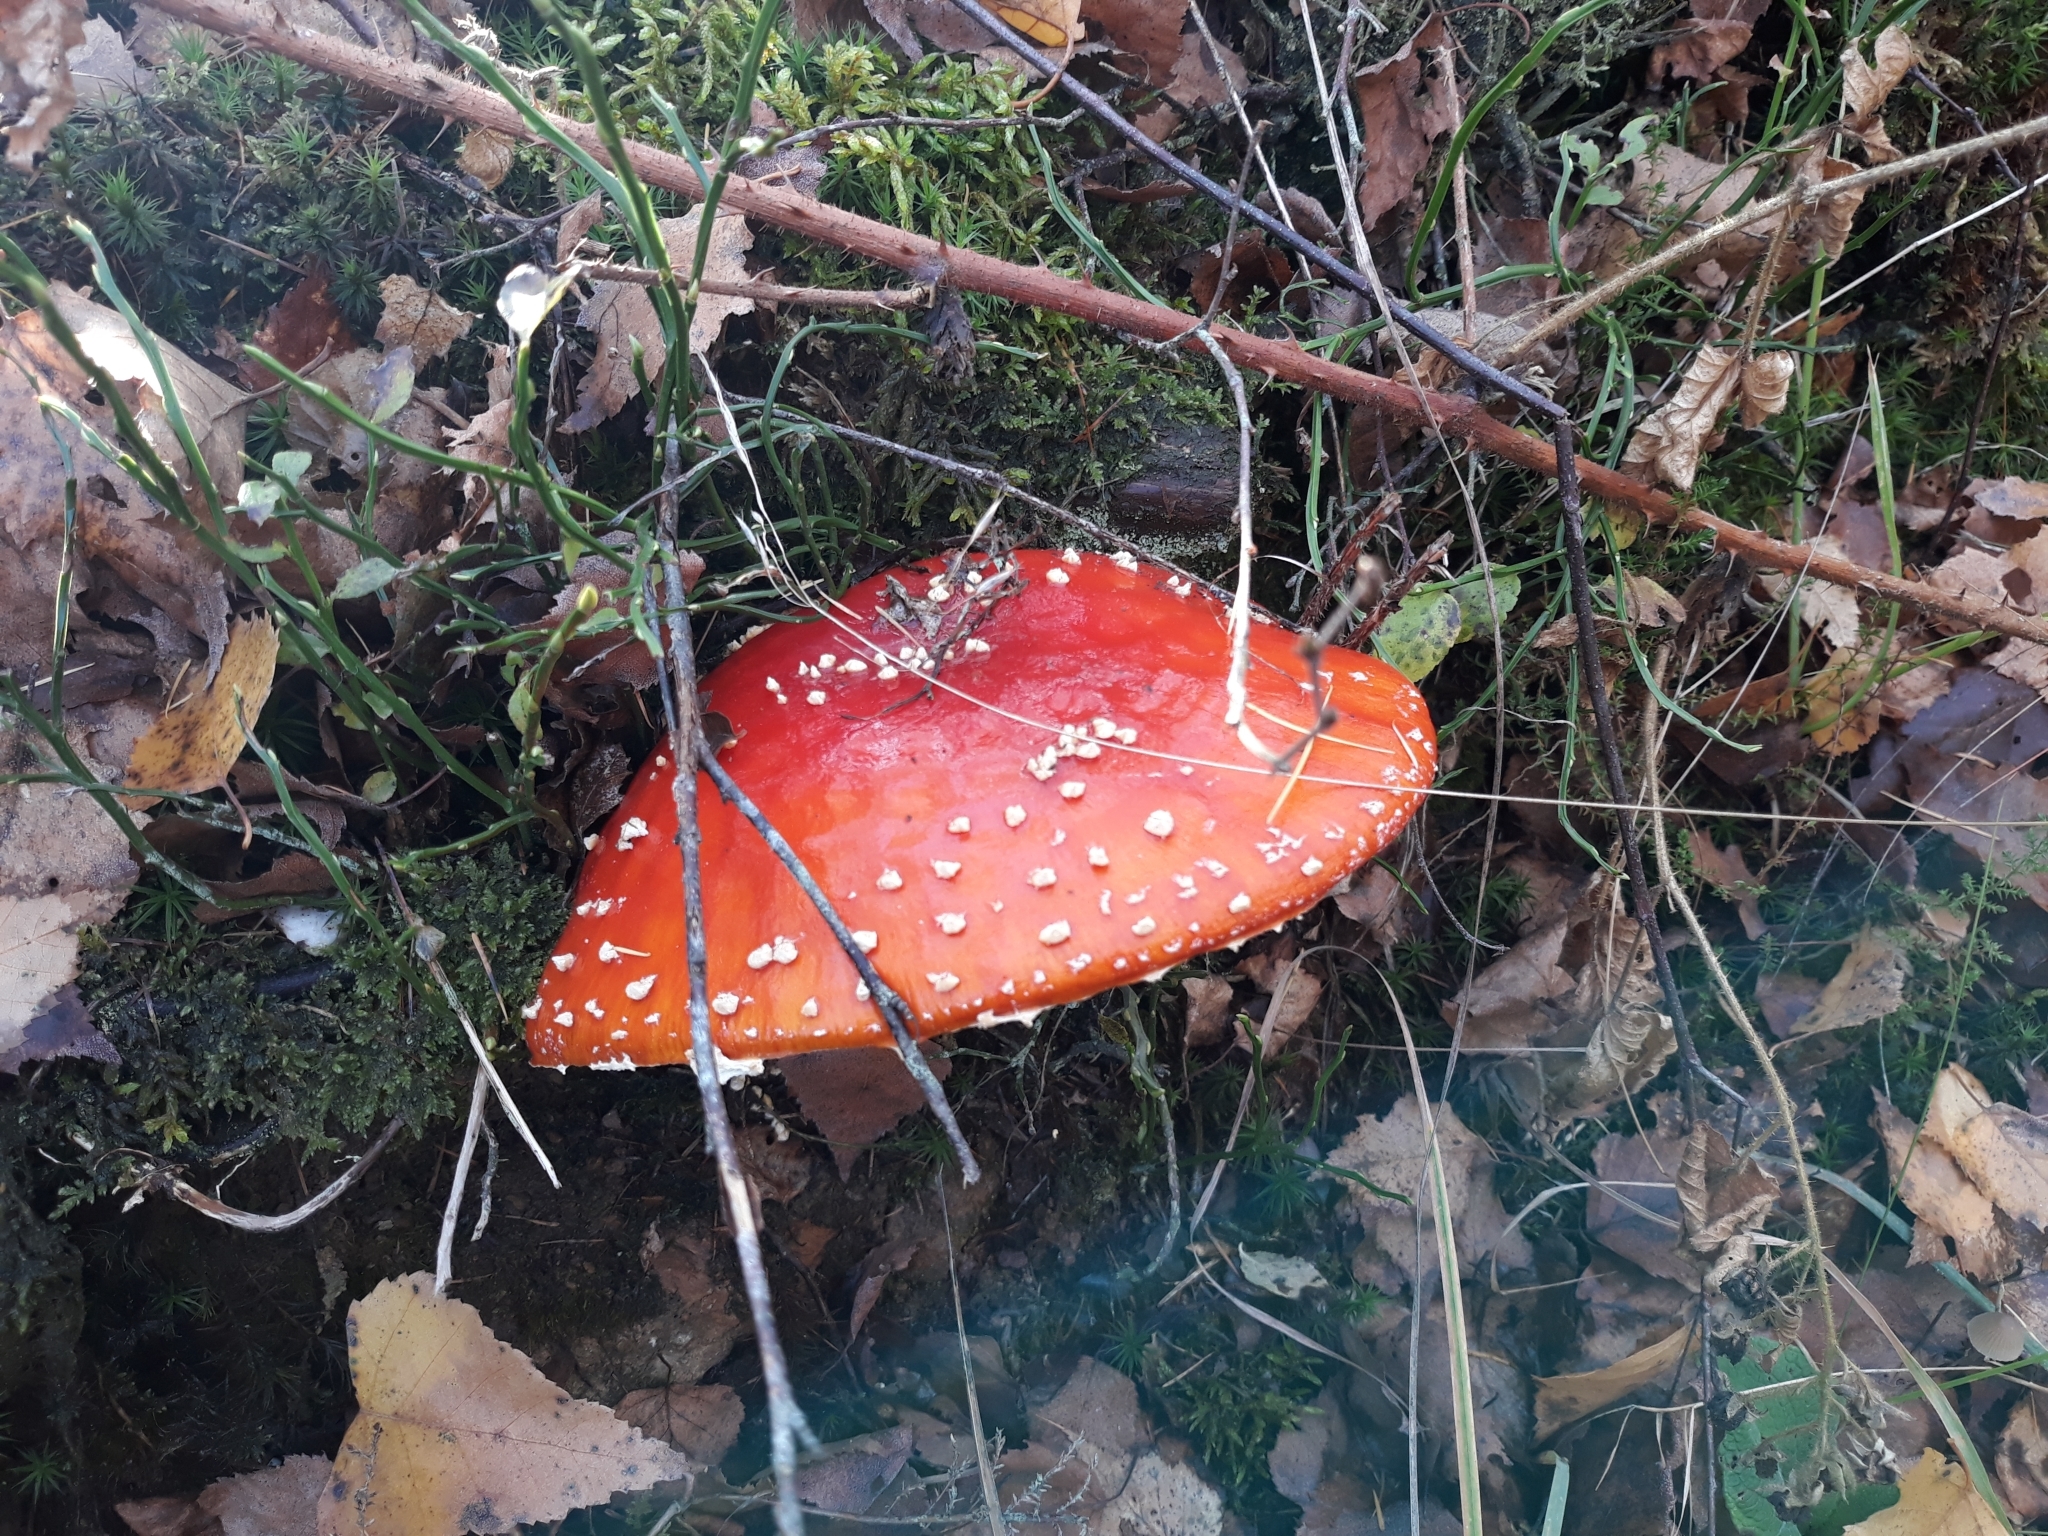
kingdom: Fungi
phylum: Basidiomycota
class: Agaricomycetes
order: Agaricales
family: Amanitaceae
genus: Amanita
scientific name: Amanita muscaria
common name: Fly agaric
